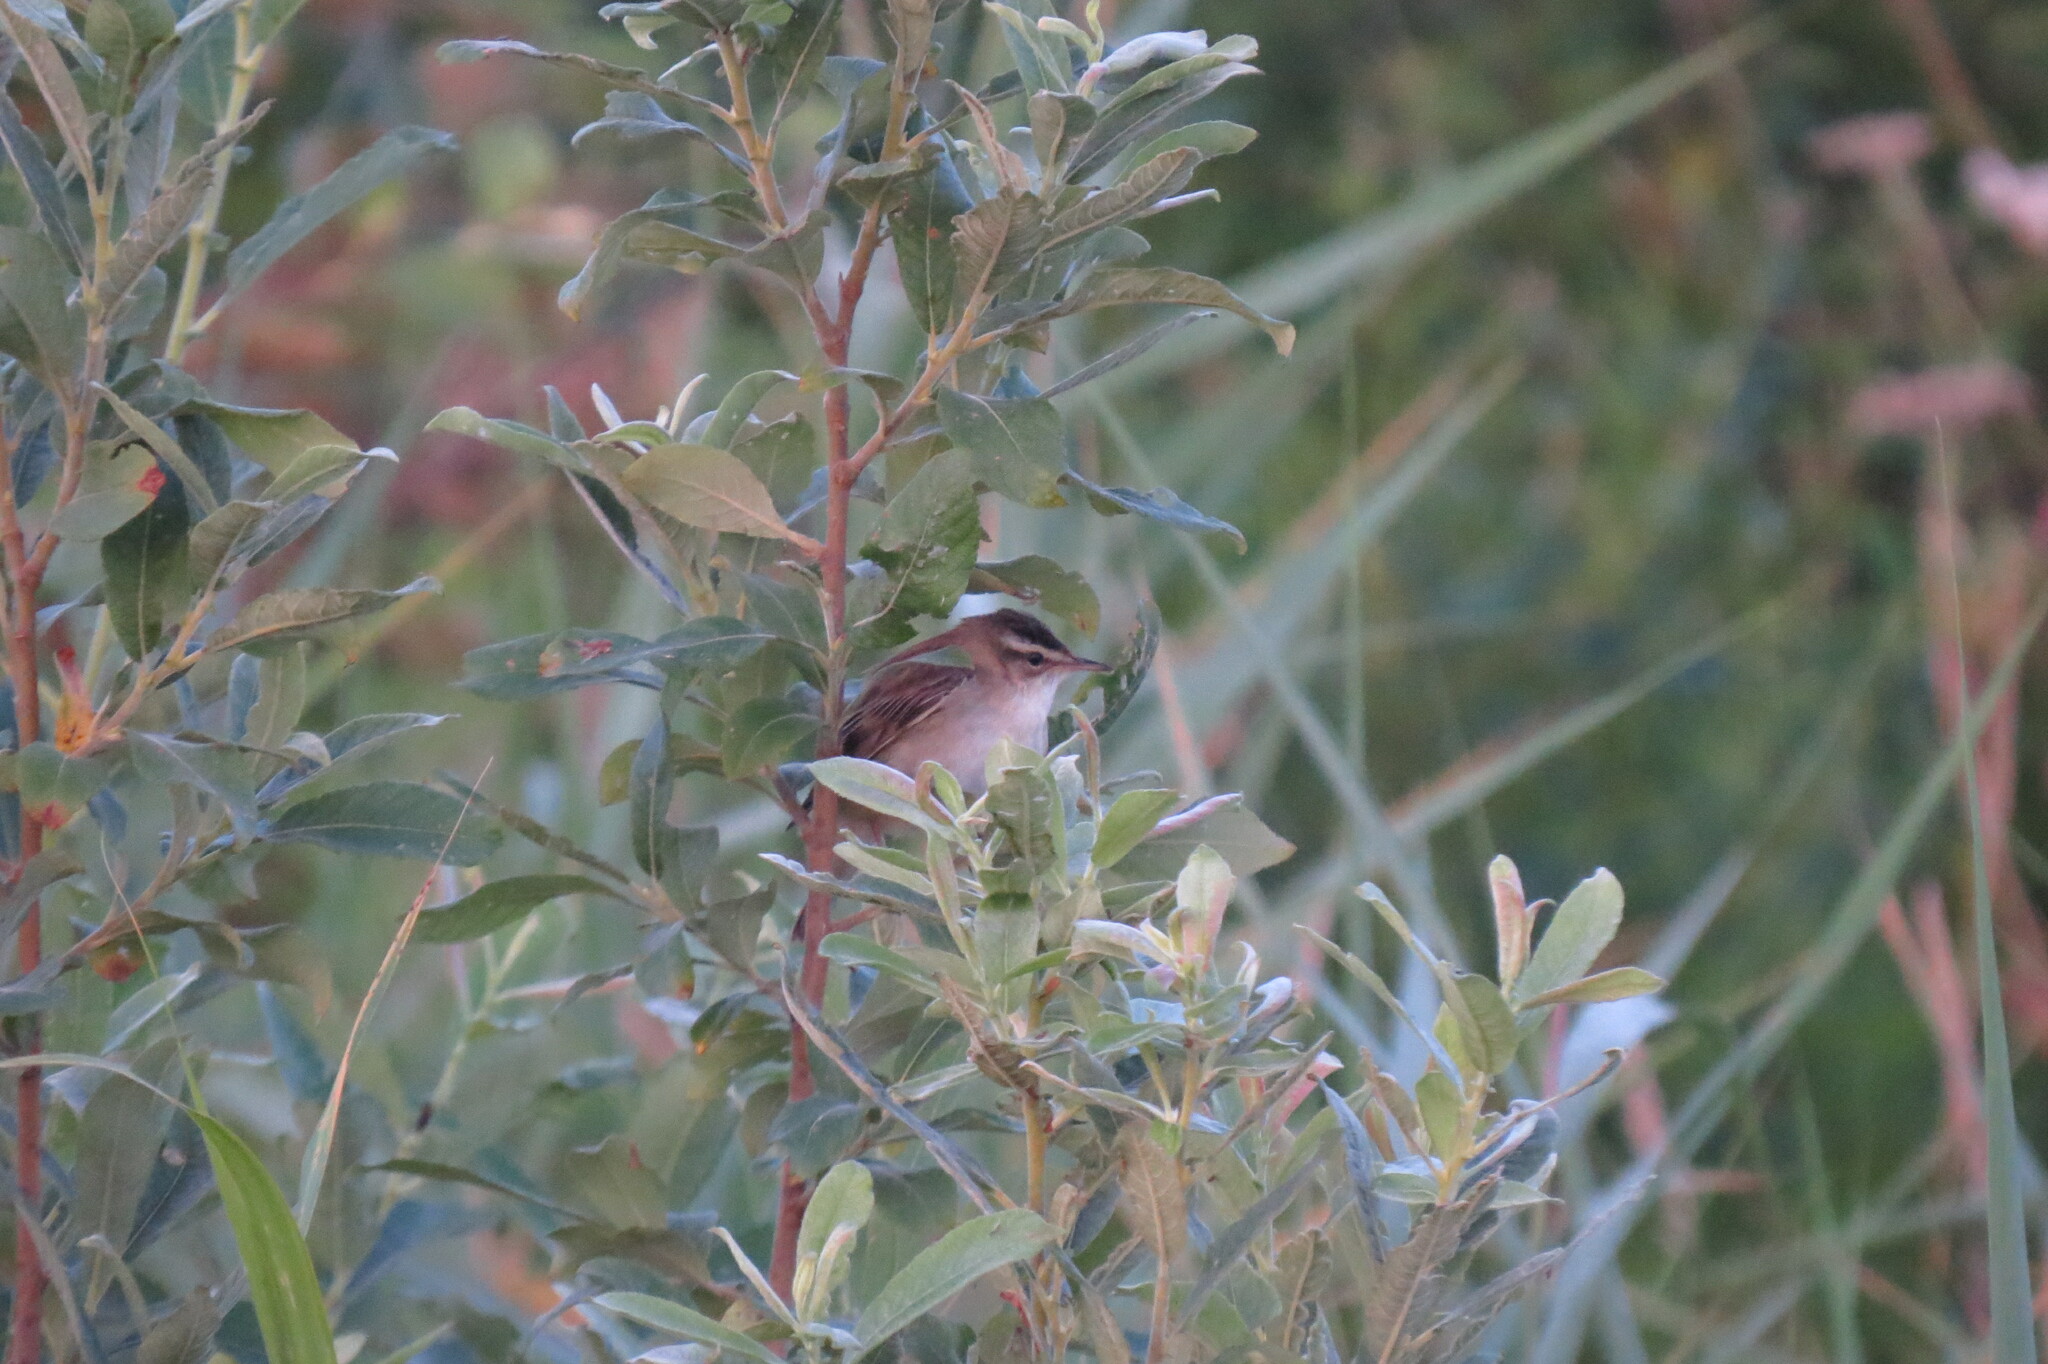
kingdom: Animalia
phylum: Chordata
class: Aves
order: Passeriformes
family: Acrocephalidae
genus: Acrocephalus
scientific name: Acrocephalus schoenobaenus
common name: Sedge warbler
